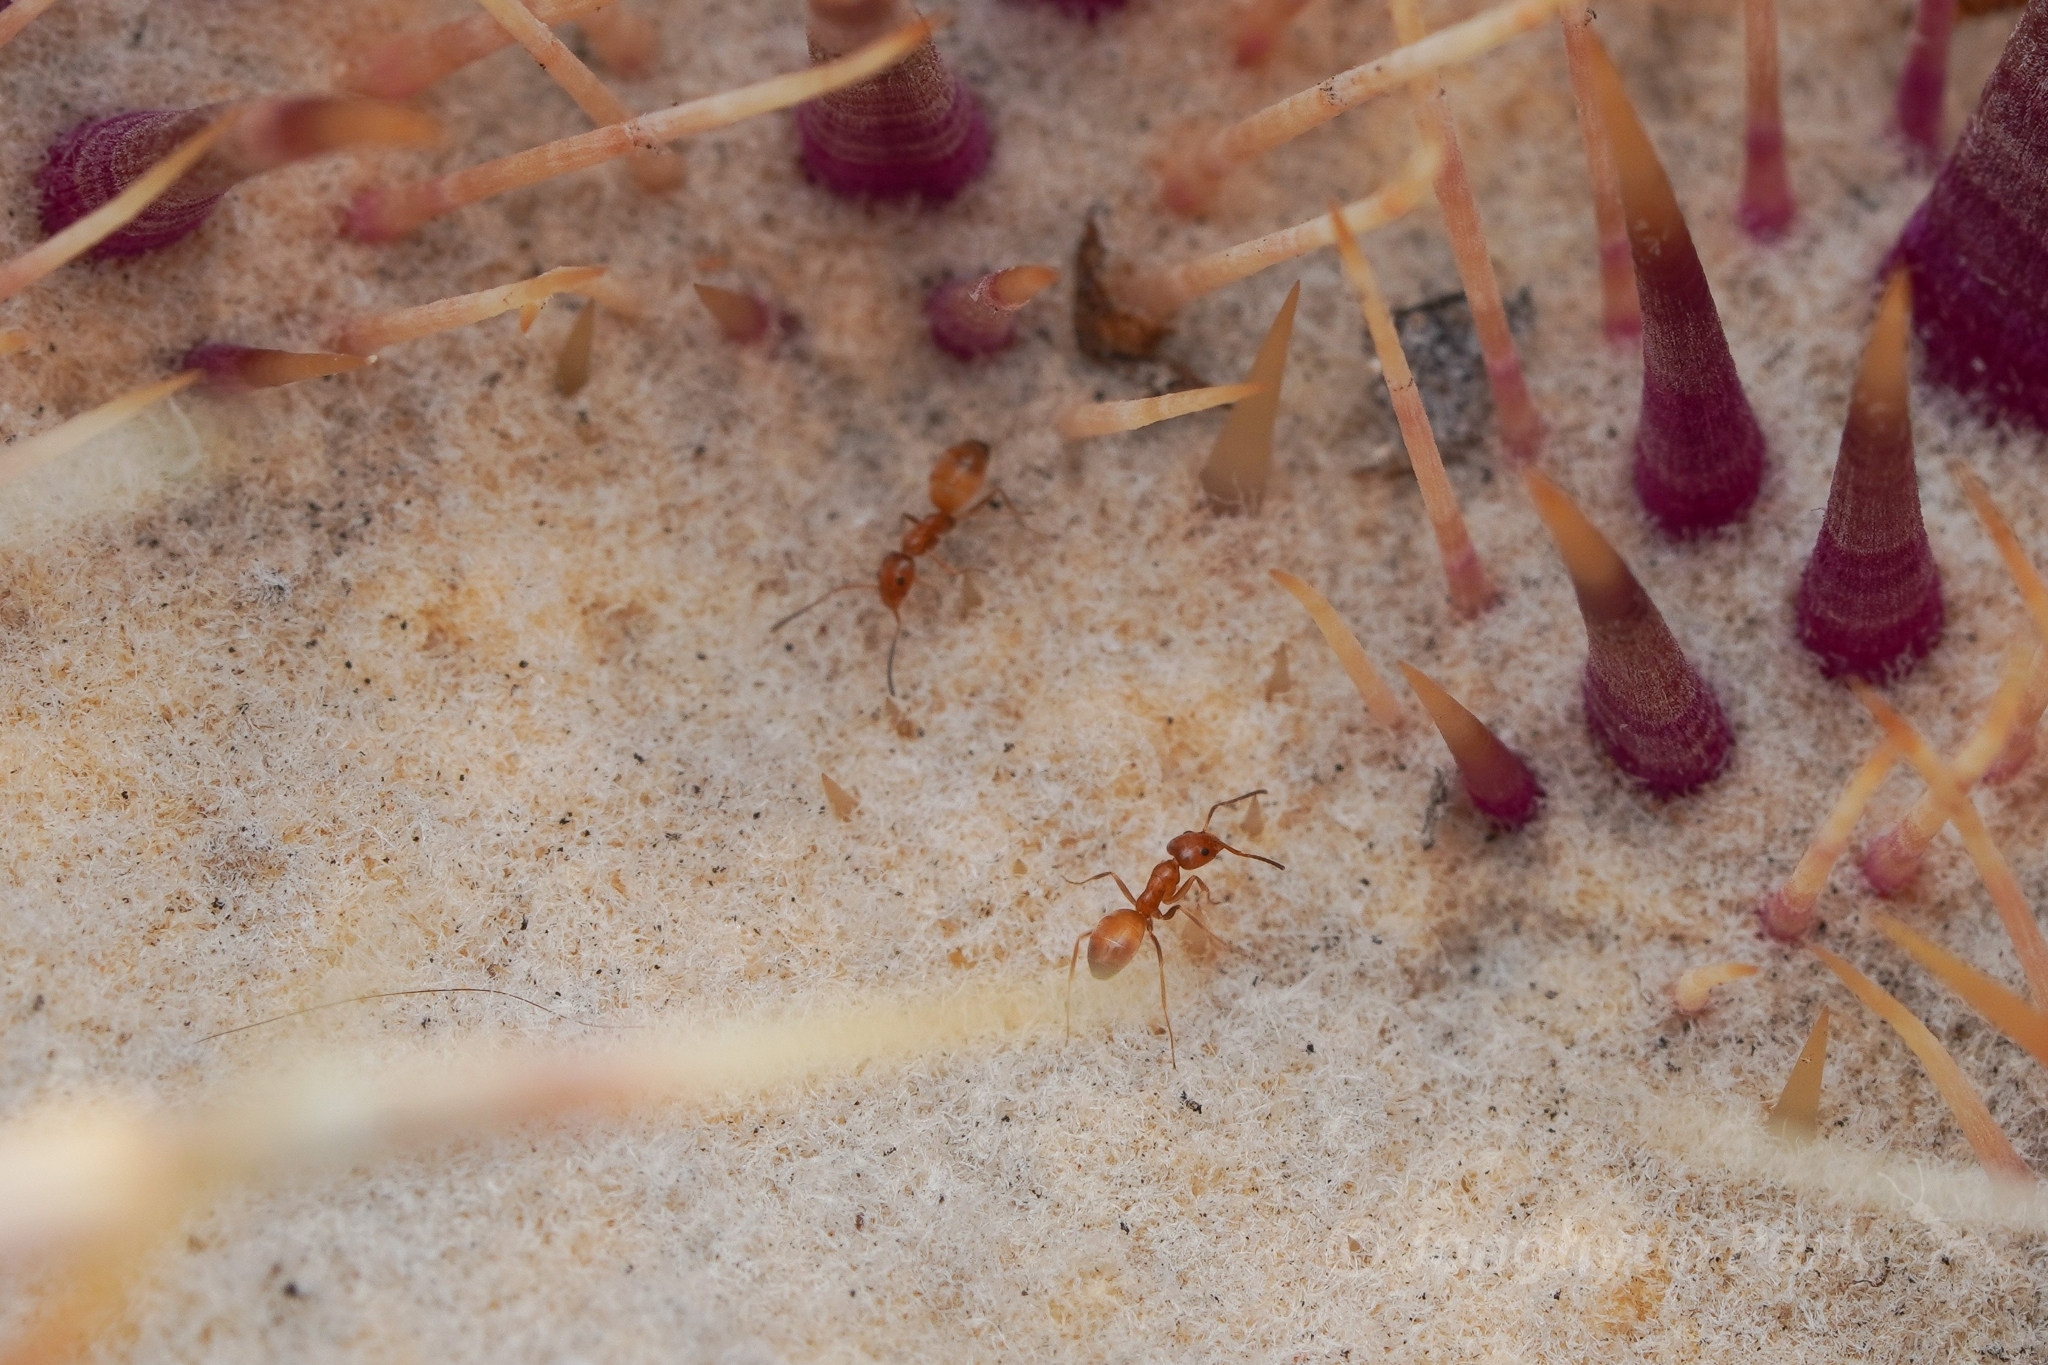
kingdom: Animalia
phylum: Arthropoda
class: Insecta
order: Hymenoptera
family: Formicidae
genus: Forelius
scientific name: Forelius pruinosus
